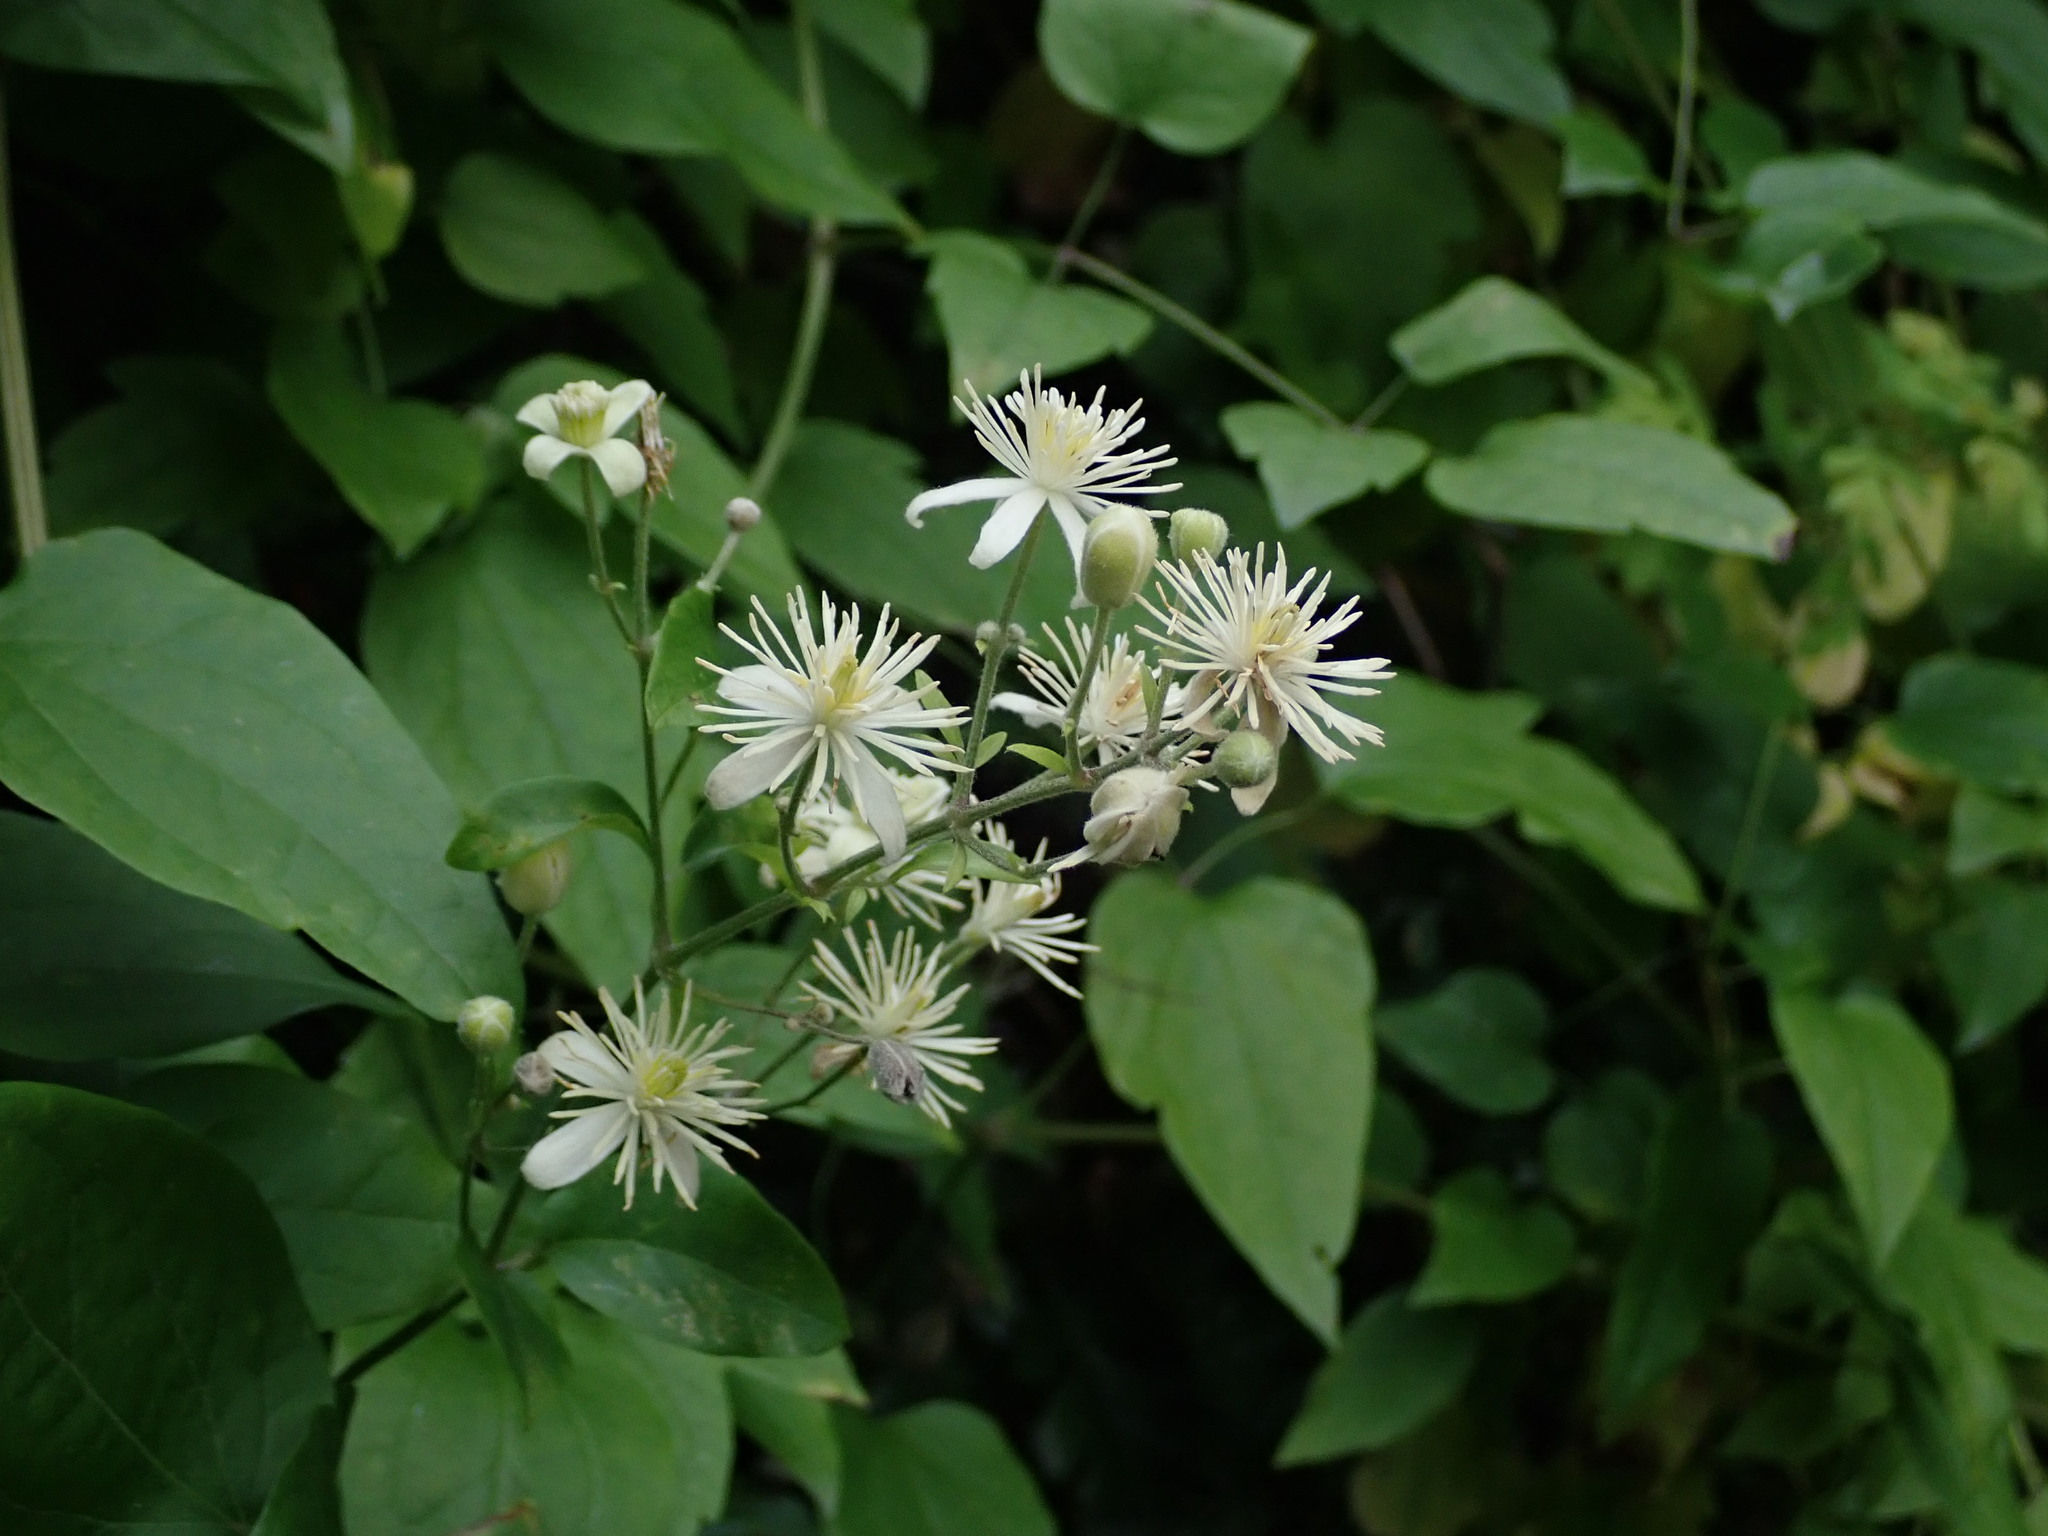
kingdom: Plantae
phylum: Tracheophyta
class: Magnoliopsida
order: Ranunculales
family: Ranunculaceae
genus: Clematis
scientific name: Clematis vitalba
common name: Evergreen clematis
